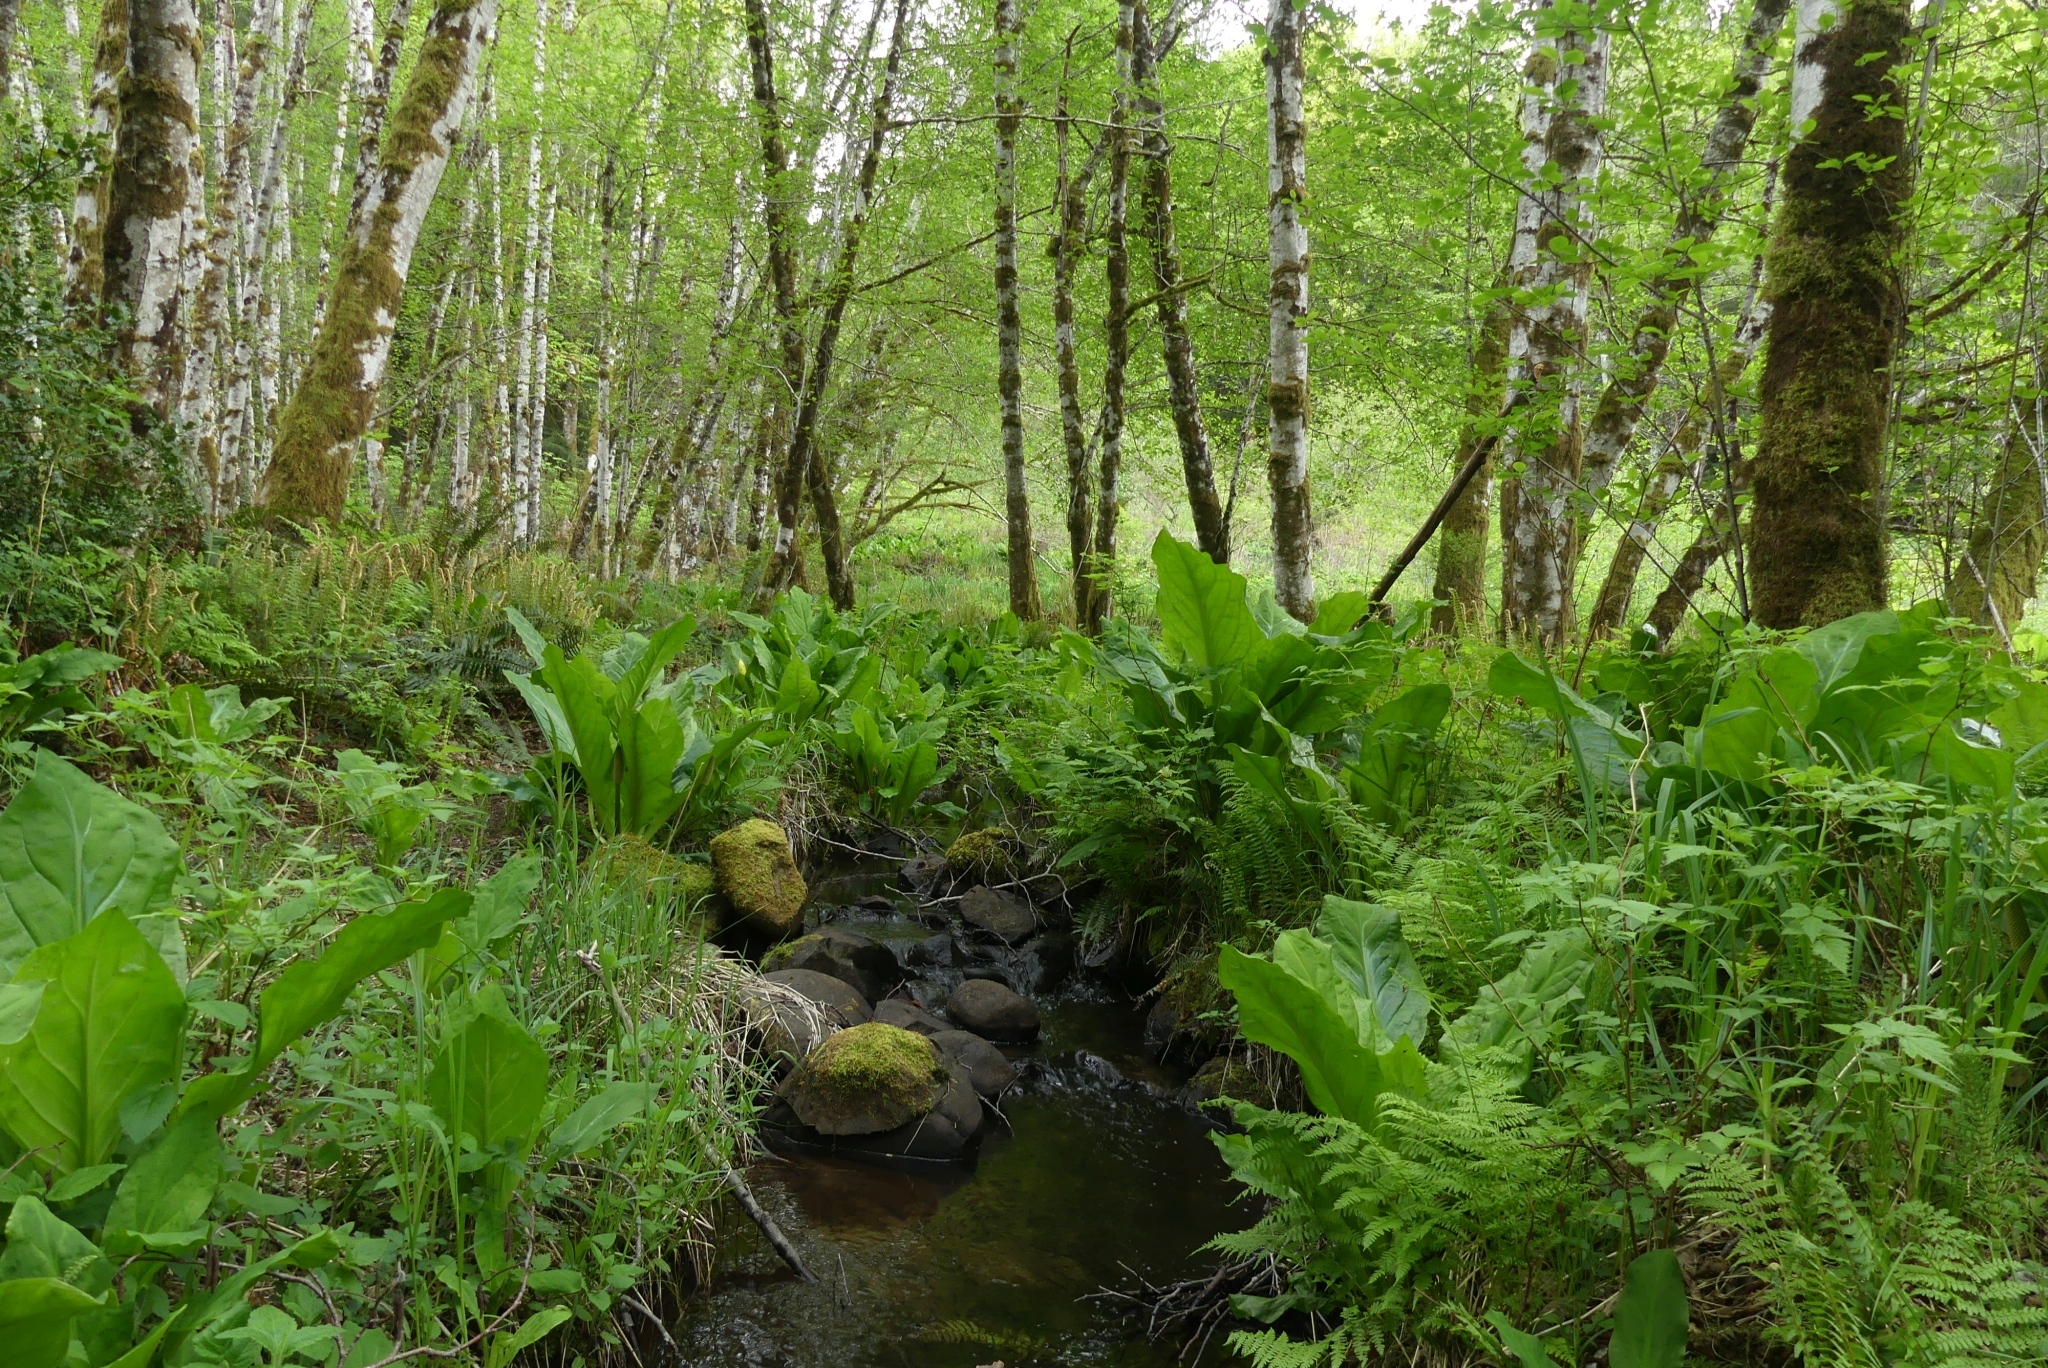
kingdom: Plantae
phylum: Tracheophyta
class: Liliopsida
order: Alismatales
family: Araceae
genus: Lysichiton
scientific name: Lysichiton americanus
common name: American skunk cabbage
